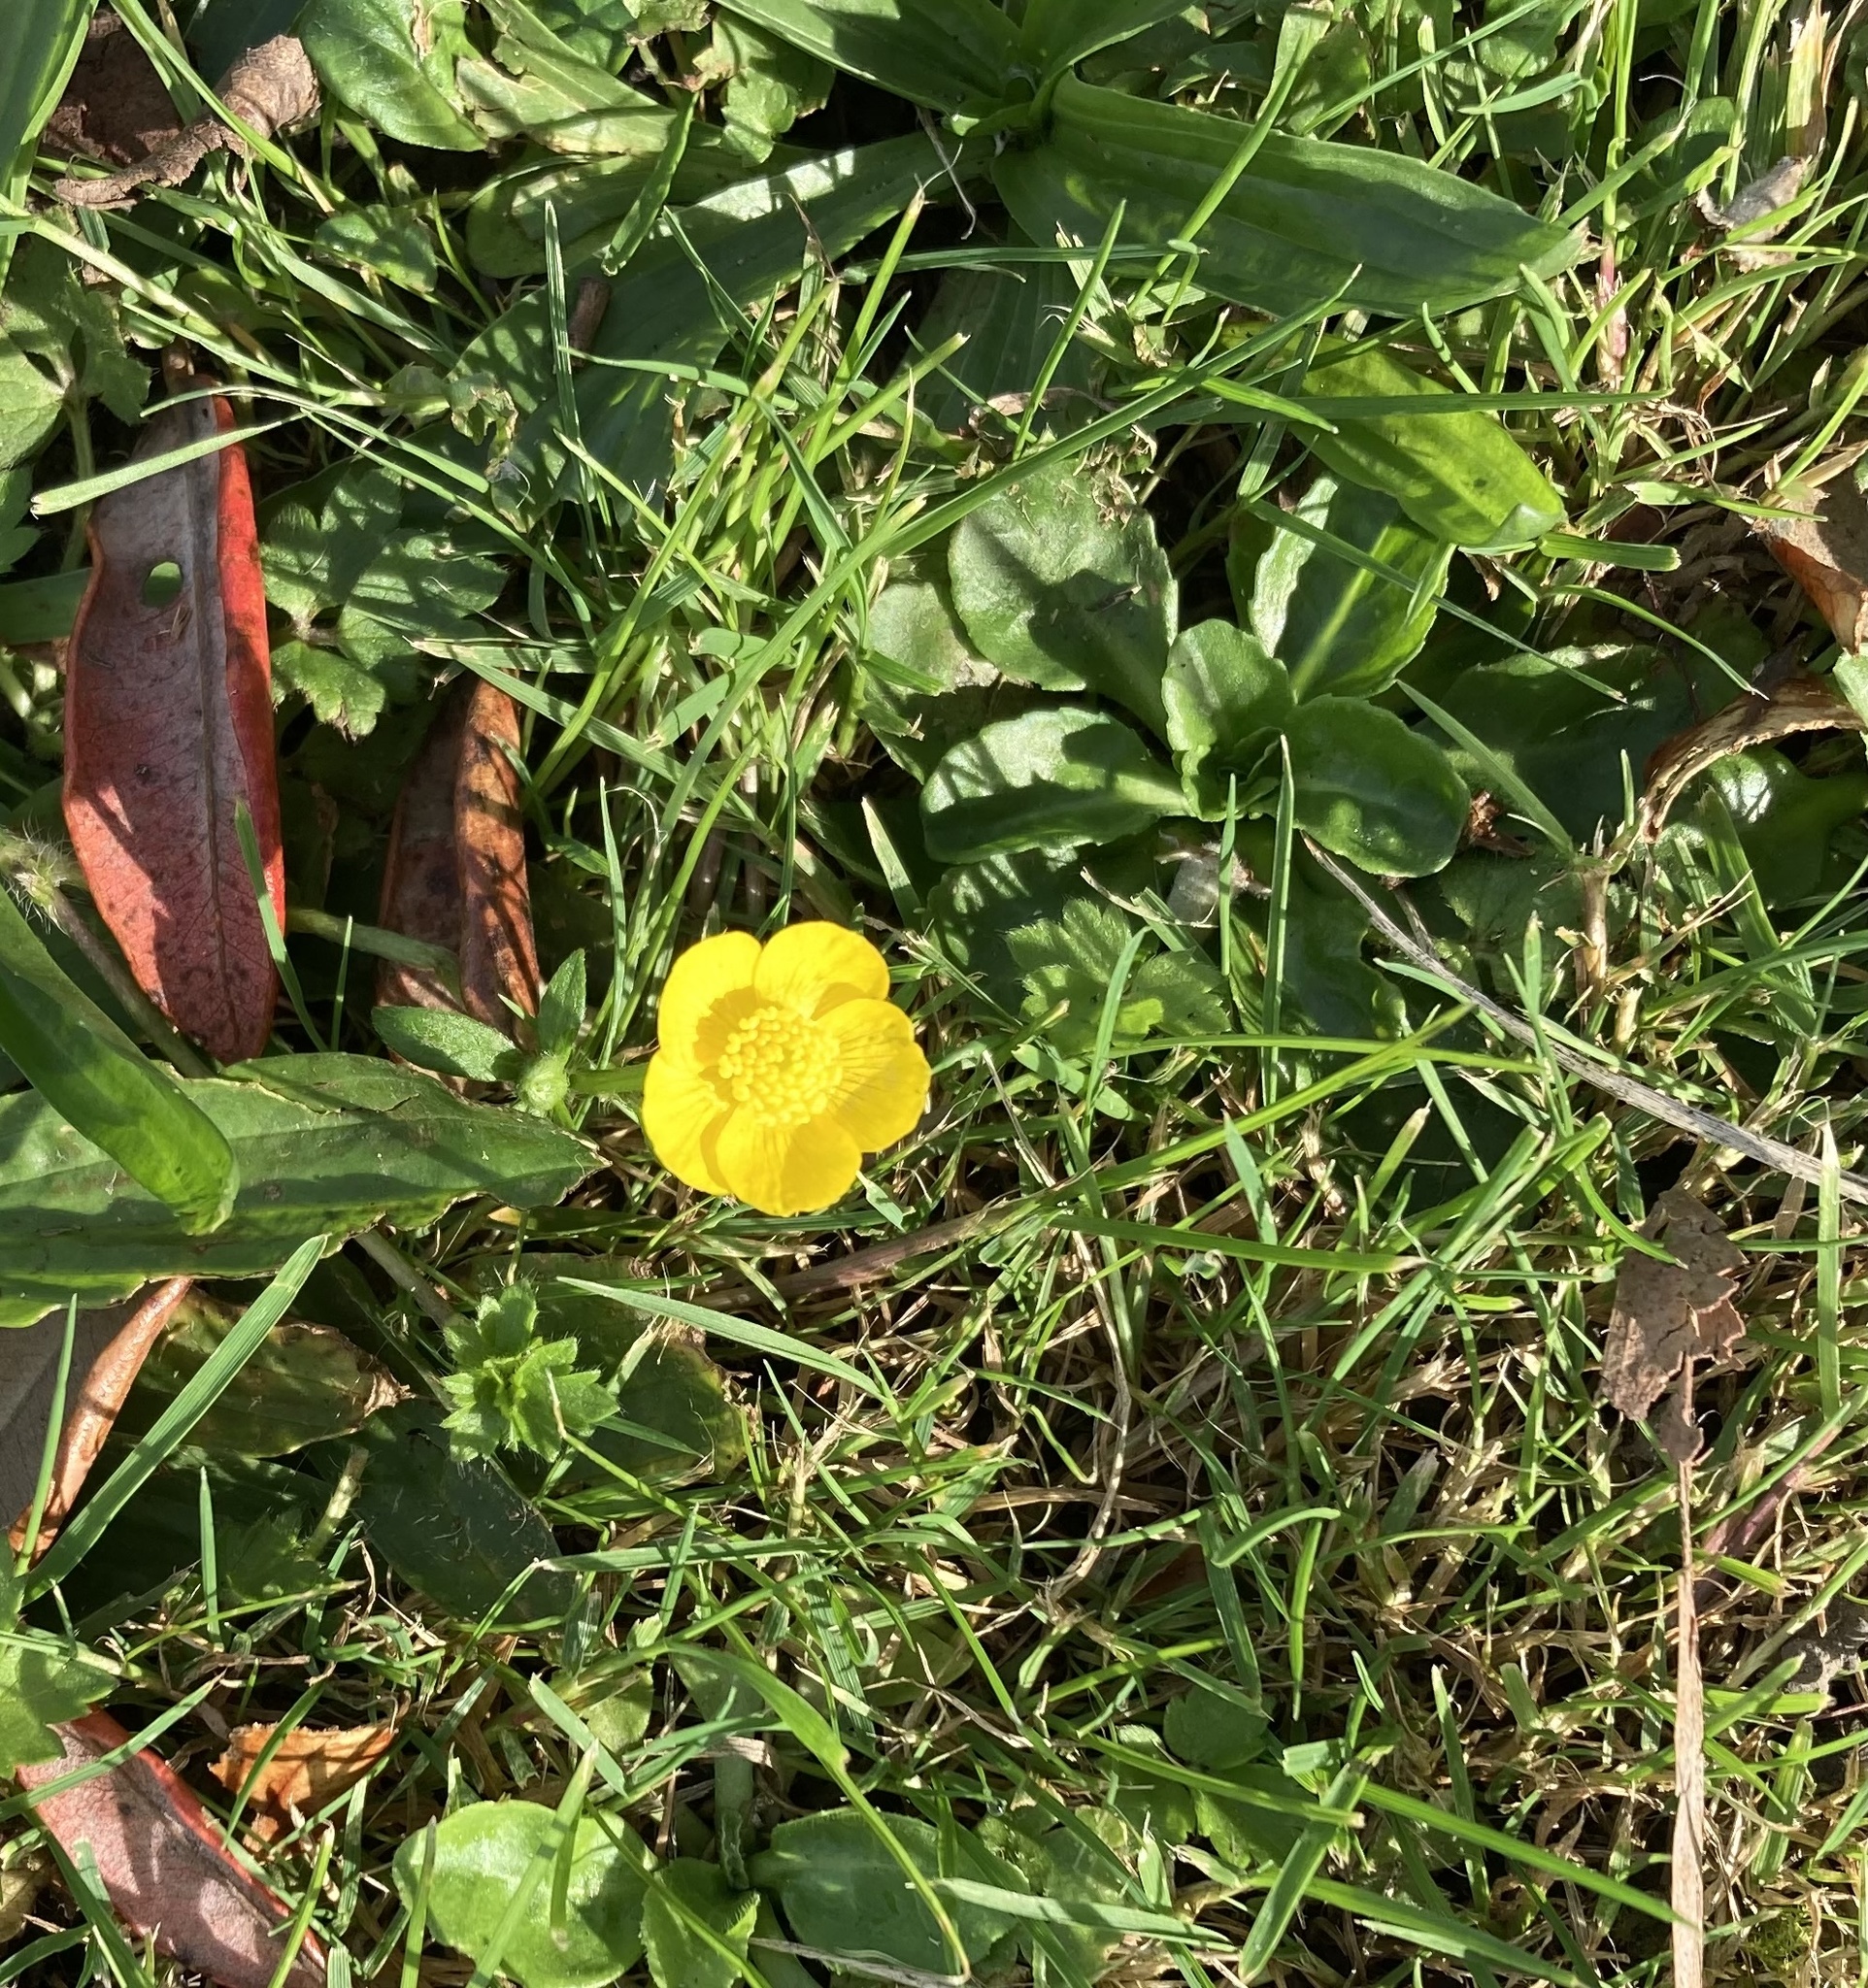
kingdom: Plantae
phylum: Tracheophyta
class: Magnoliopsida
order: Ranunculales
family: Ranunculaceae
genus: Ranunculus
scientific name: Ranunculus repens
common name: Creeping buttercup
